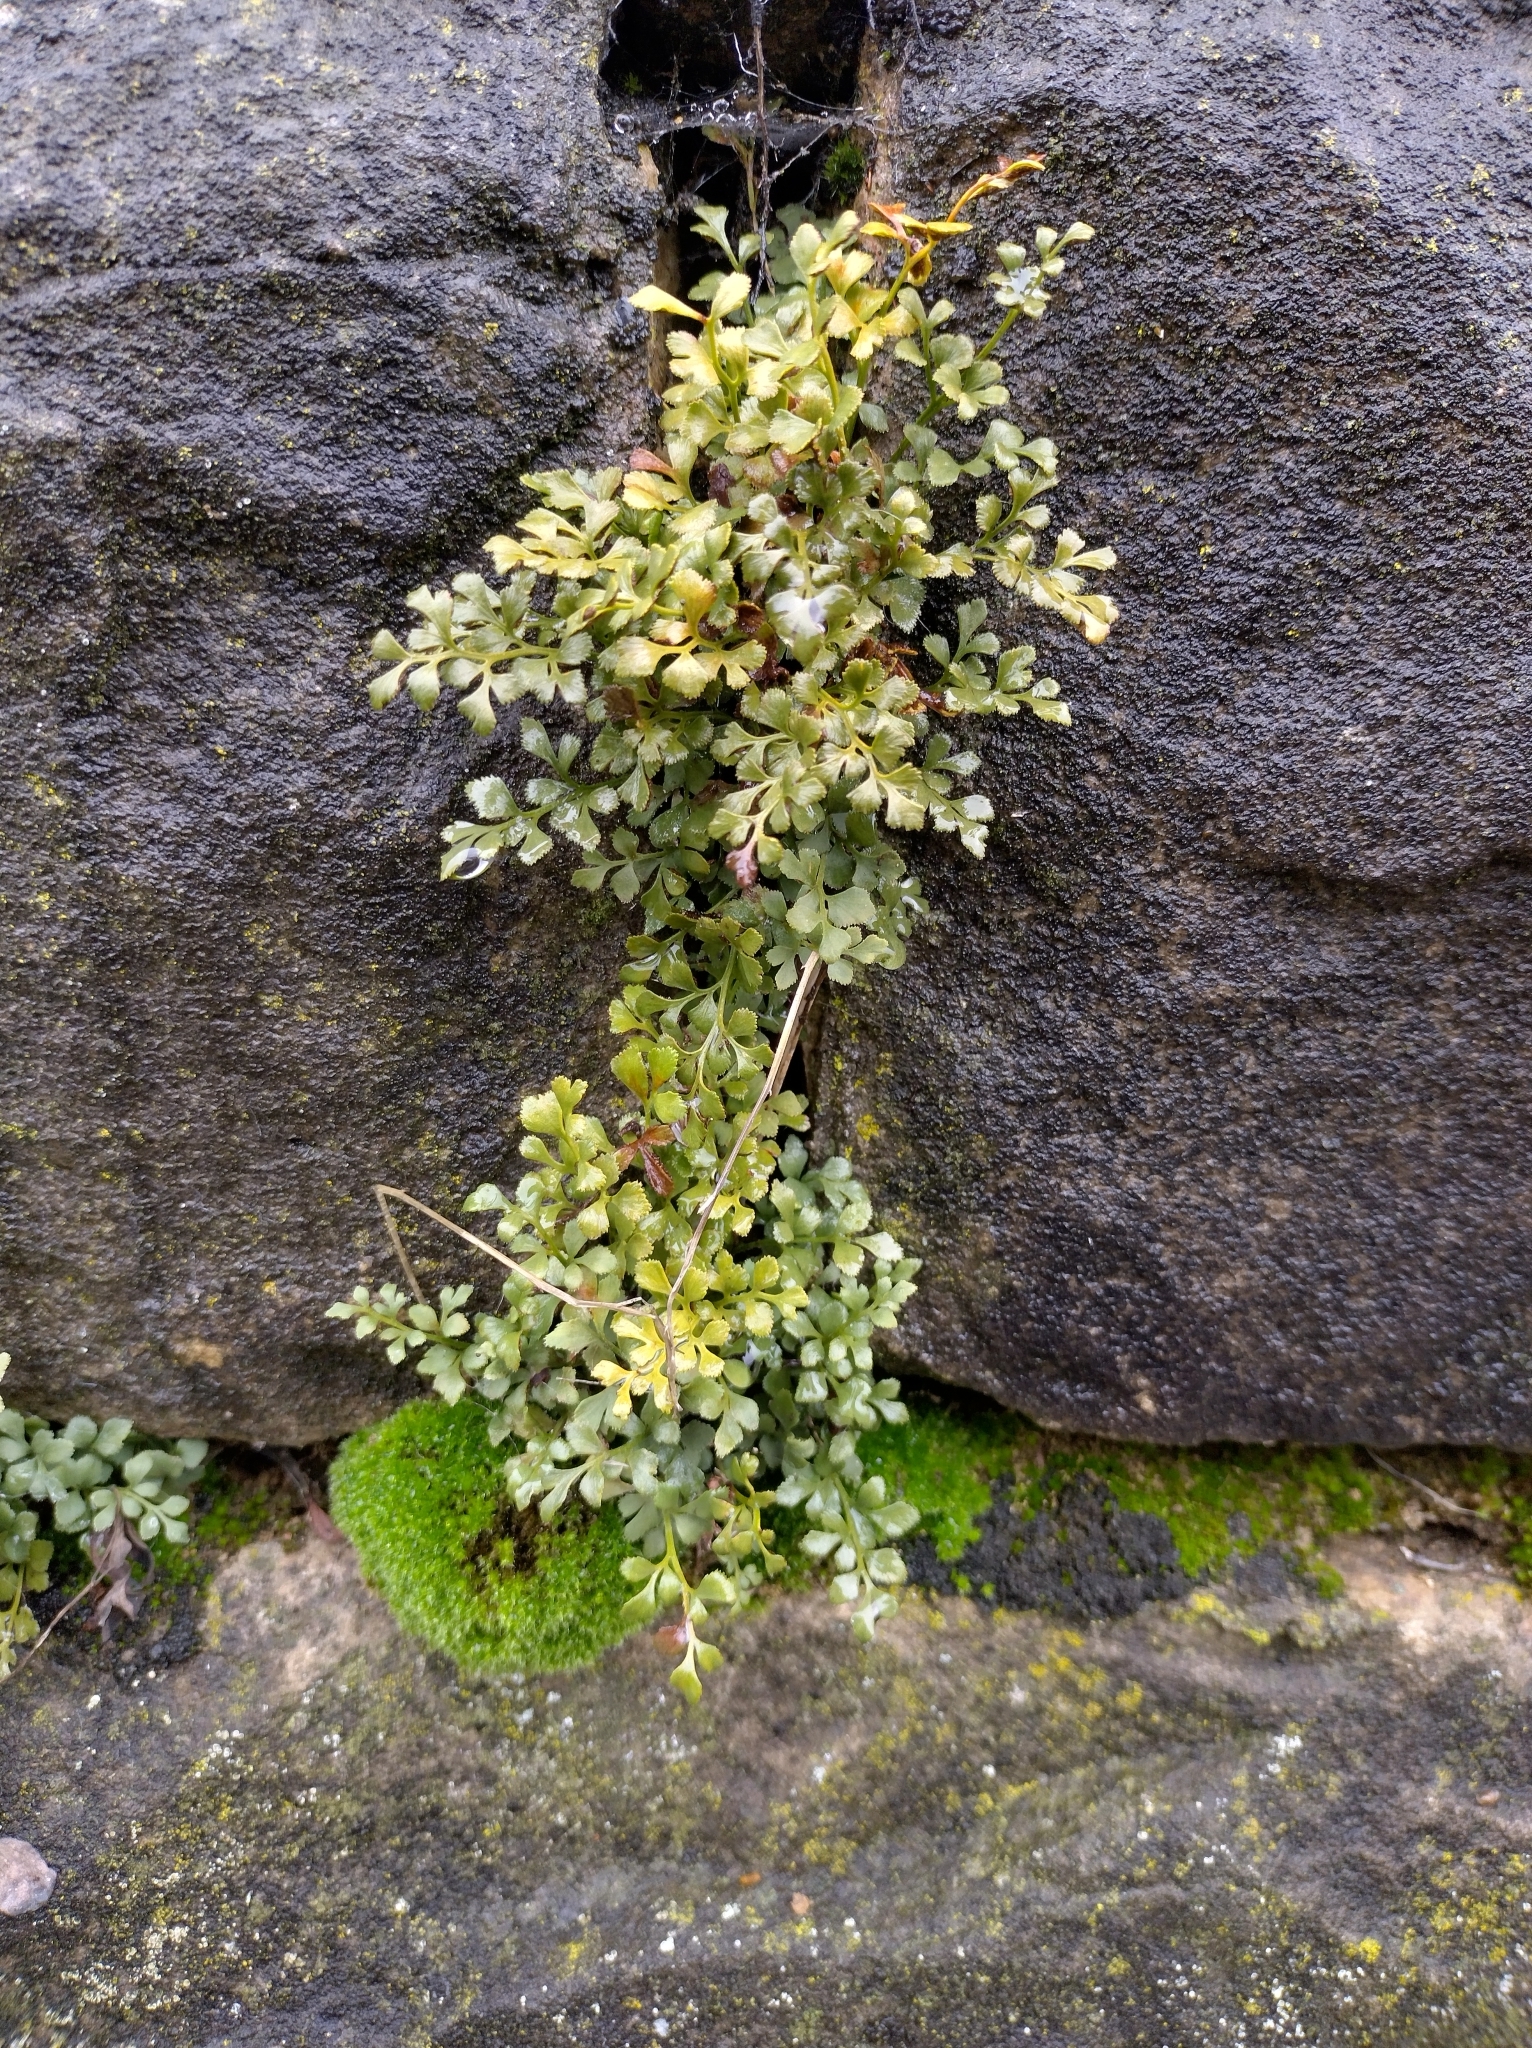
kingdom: Plantae
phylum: Tracheophyta
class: Polypodiopsida
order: Polypodiales
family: Aspleniaceae
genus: Asplenium
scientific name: Asplenium ruta-muraria
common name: Wall-rue
